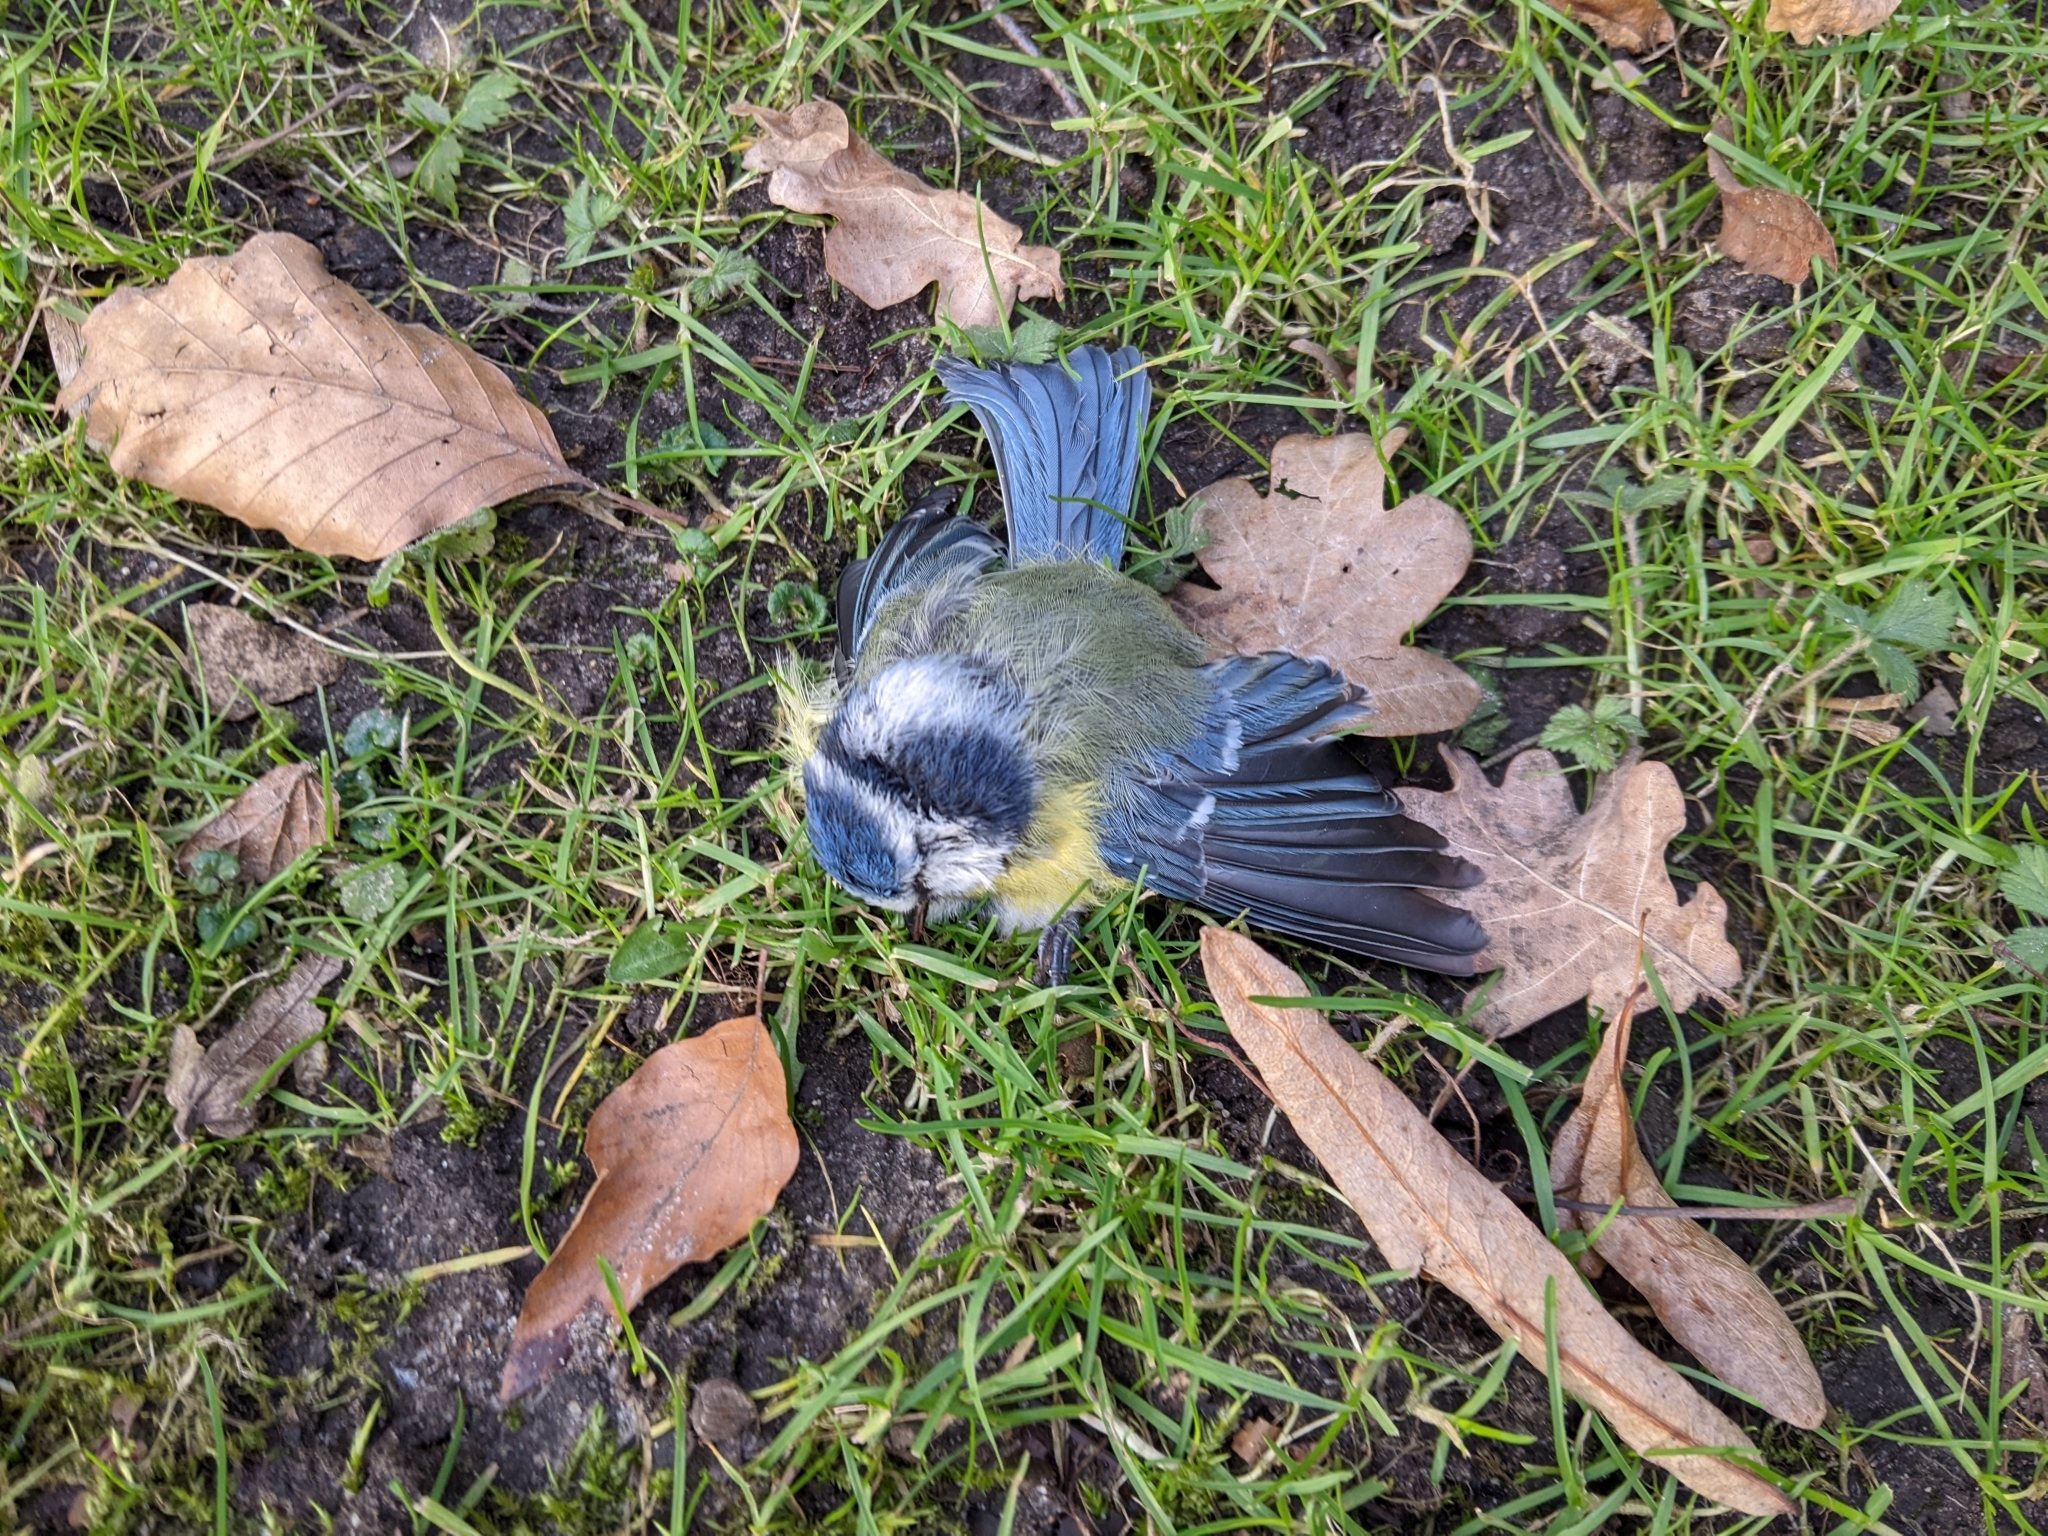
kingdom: Animalia
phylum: Chordata
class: Aves
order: Passeriformes
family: Paridae
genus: Cyanistes
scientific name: Cyanistes caeruleus
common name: Eurasian blue tit
